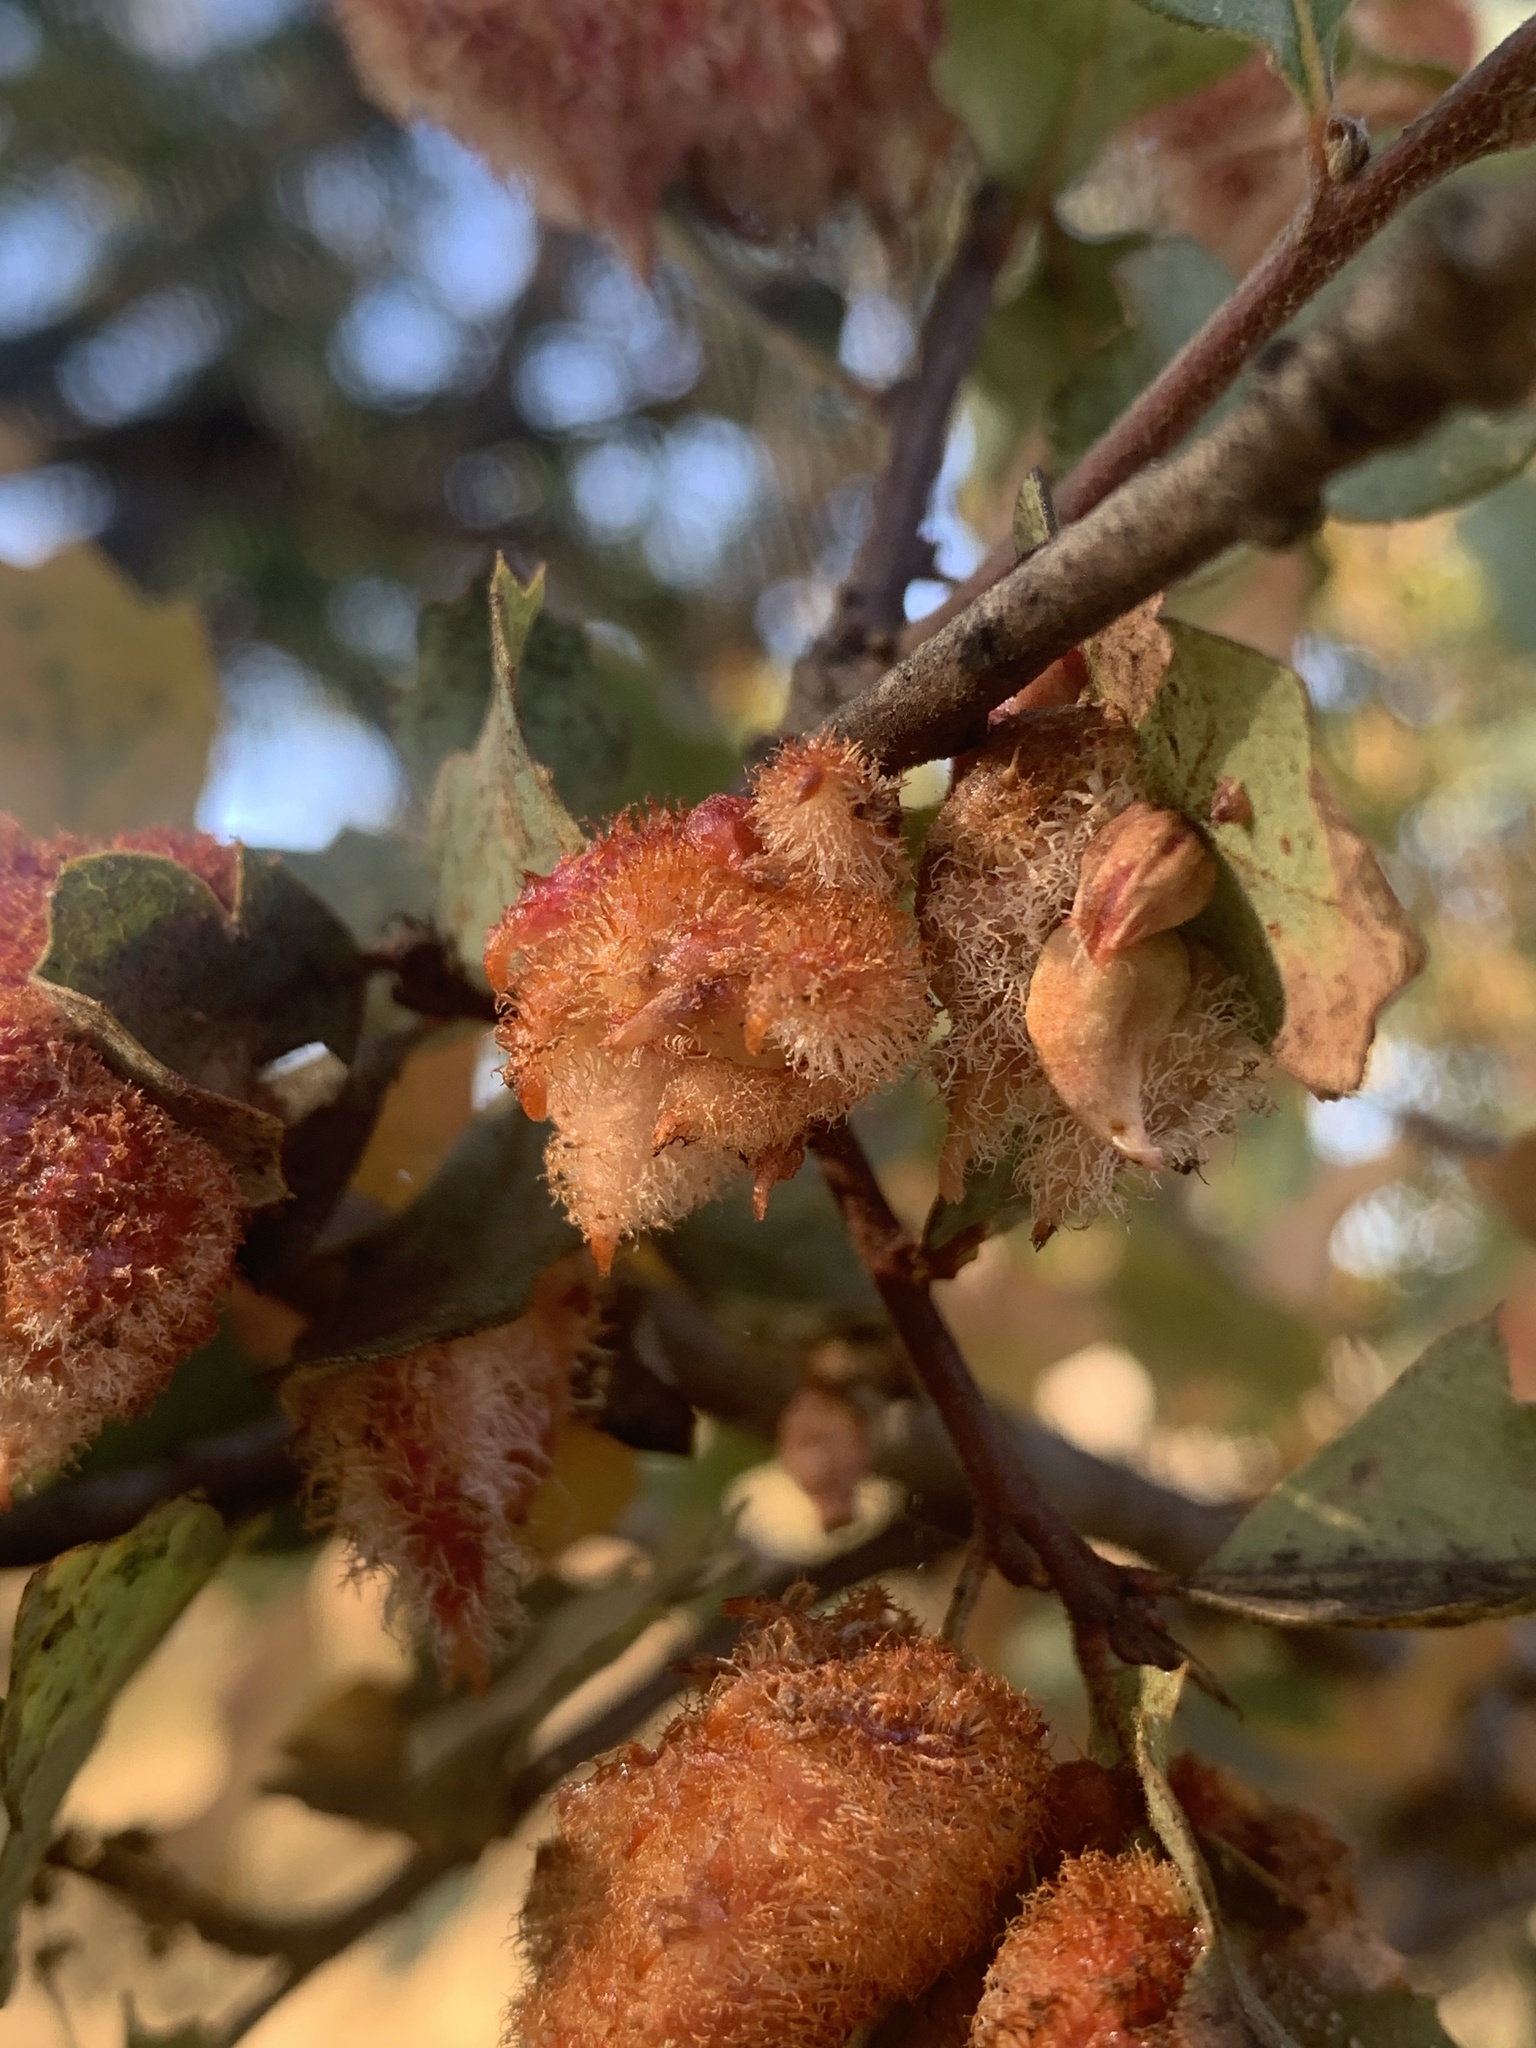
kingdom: Animalia
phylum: Arthropoda
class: Insecta
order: Hymenoptera
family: Cynipidae
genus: Andricus
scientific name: Andricus
